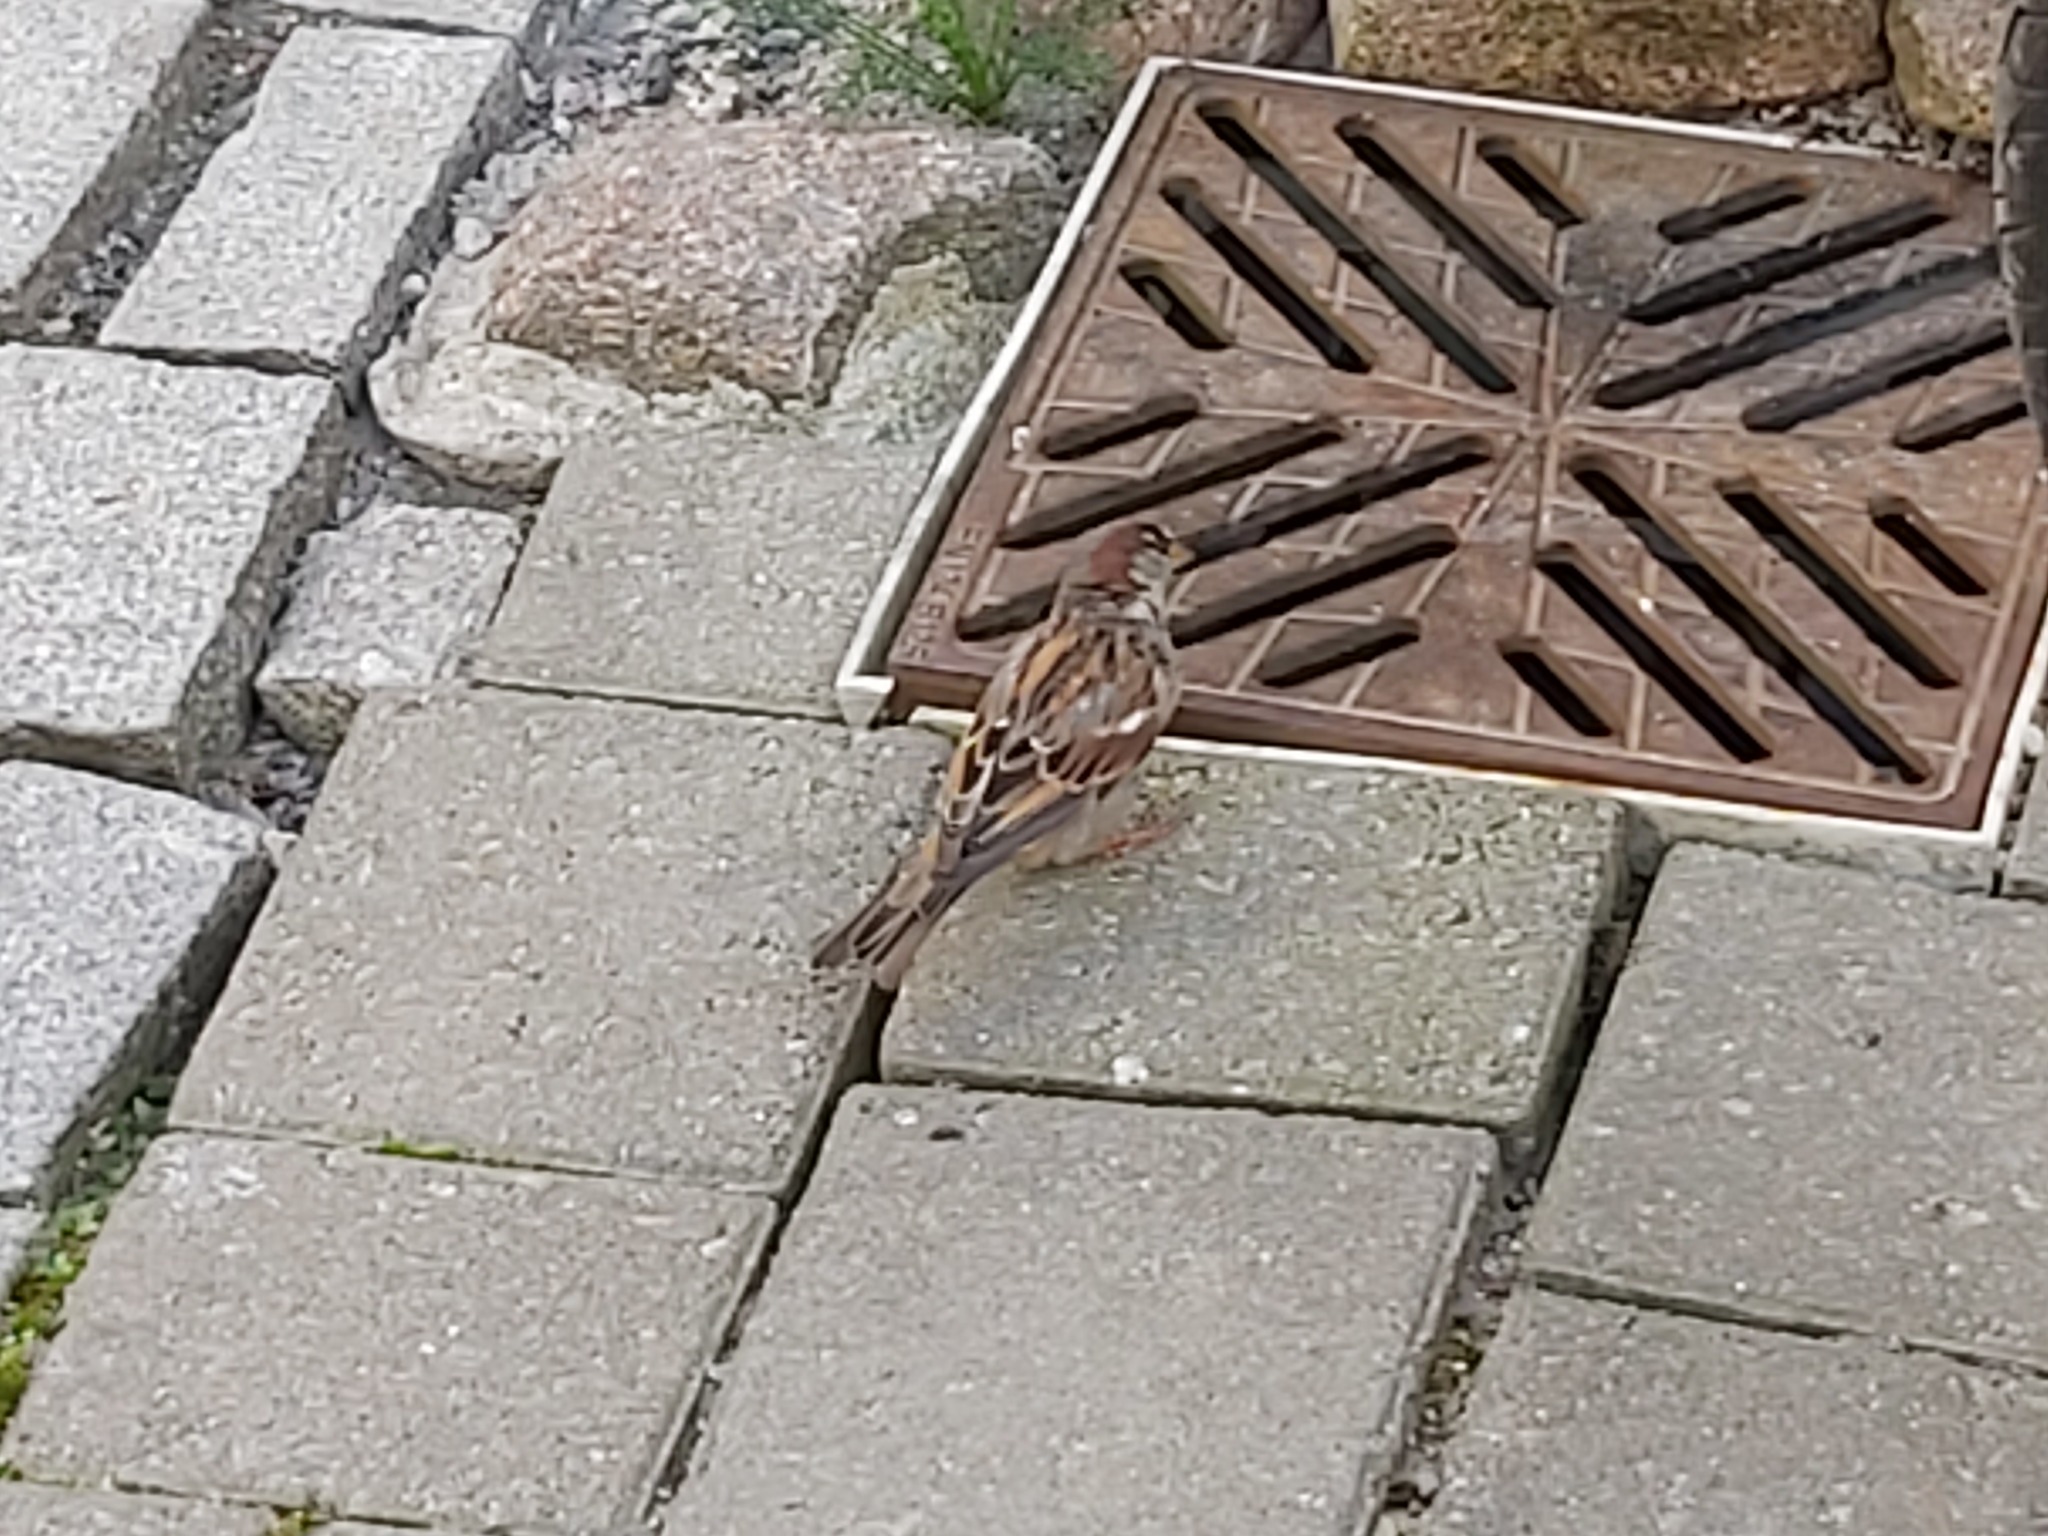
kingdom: Animalia
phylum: Chordata
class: Aves
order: Passeriformes
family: Passeridae
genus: Passer
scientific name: Passer domesticus
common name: House sparrow
